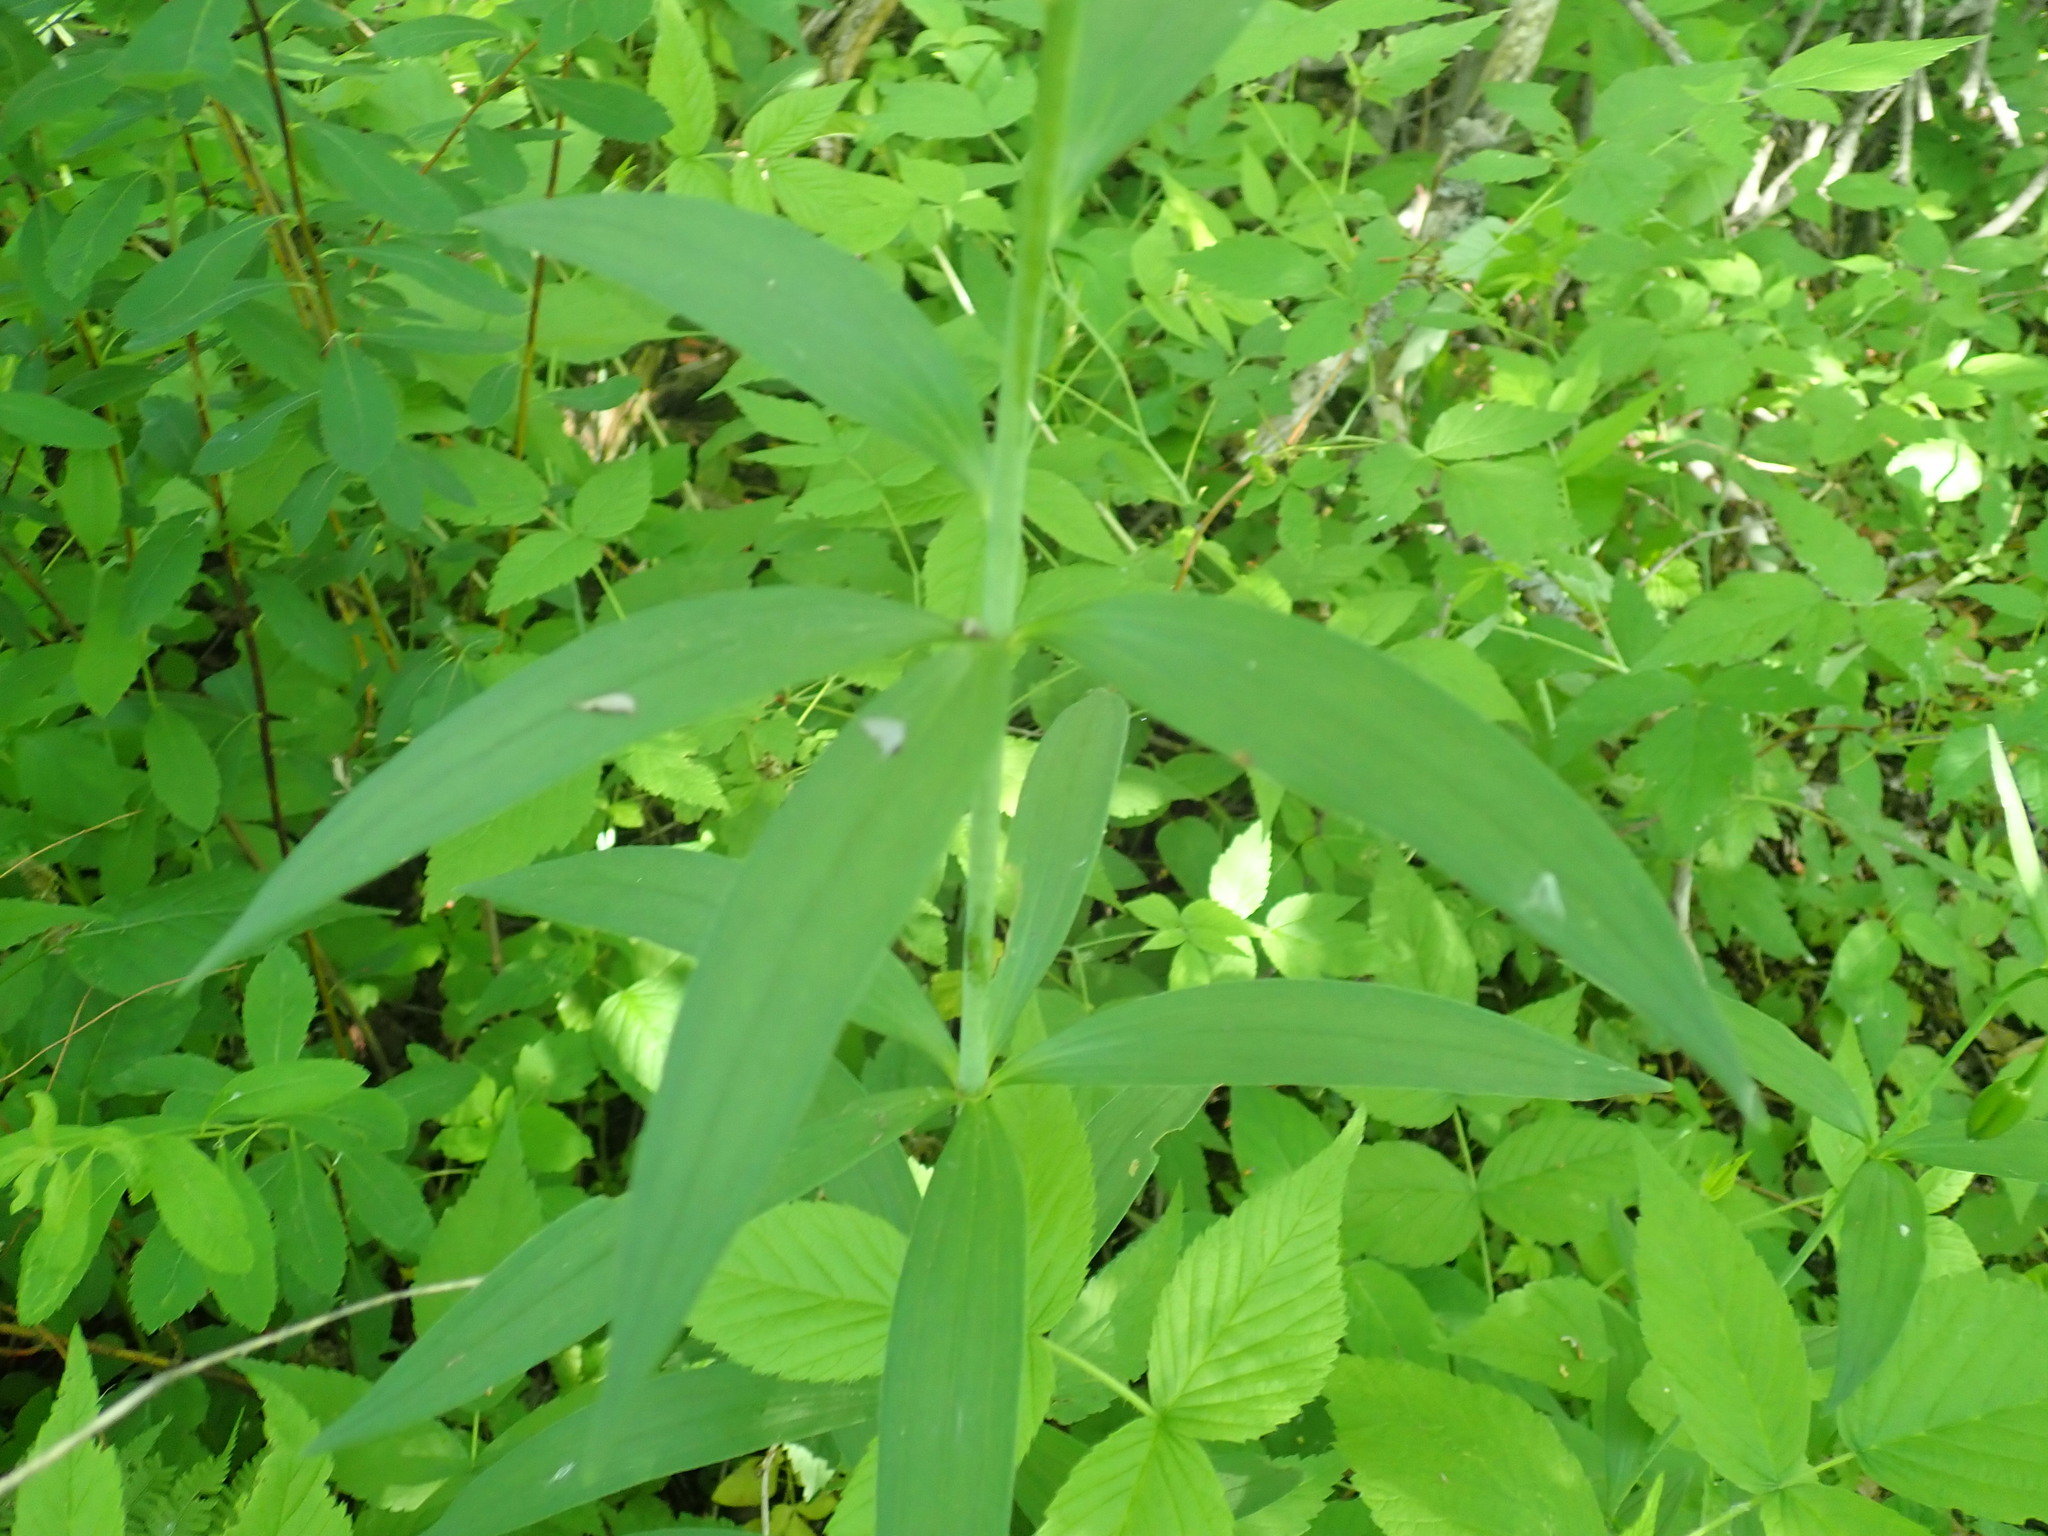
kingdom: Plantae
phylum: Tracheophyta
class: Liliopsida
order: Liliales
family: Liliaceae
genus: Lilium
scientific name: Lilium canadense
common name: Canada lily
